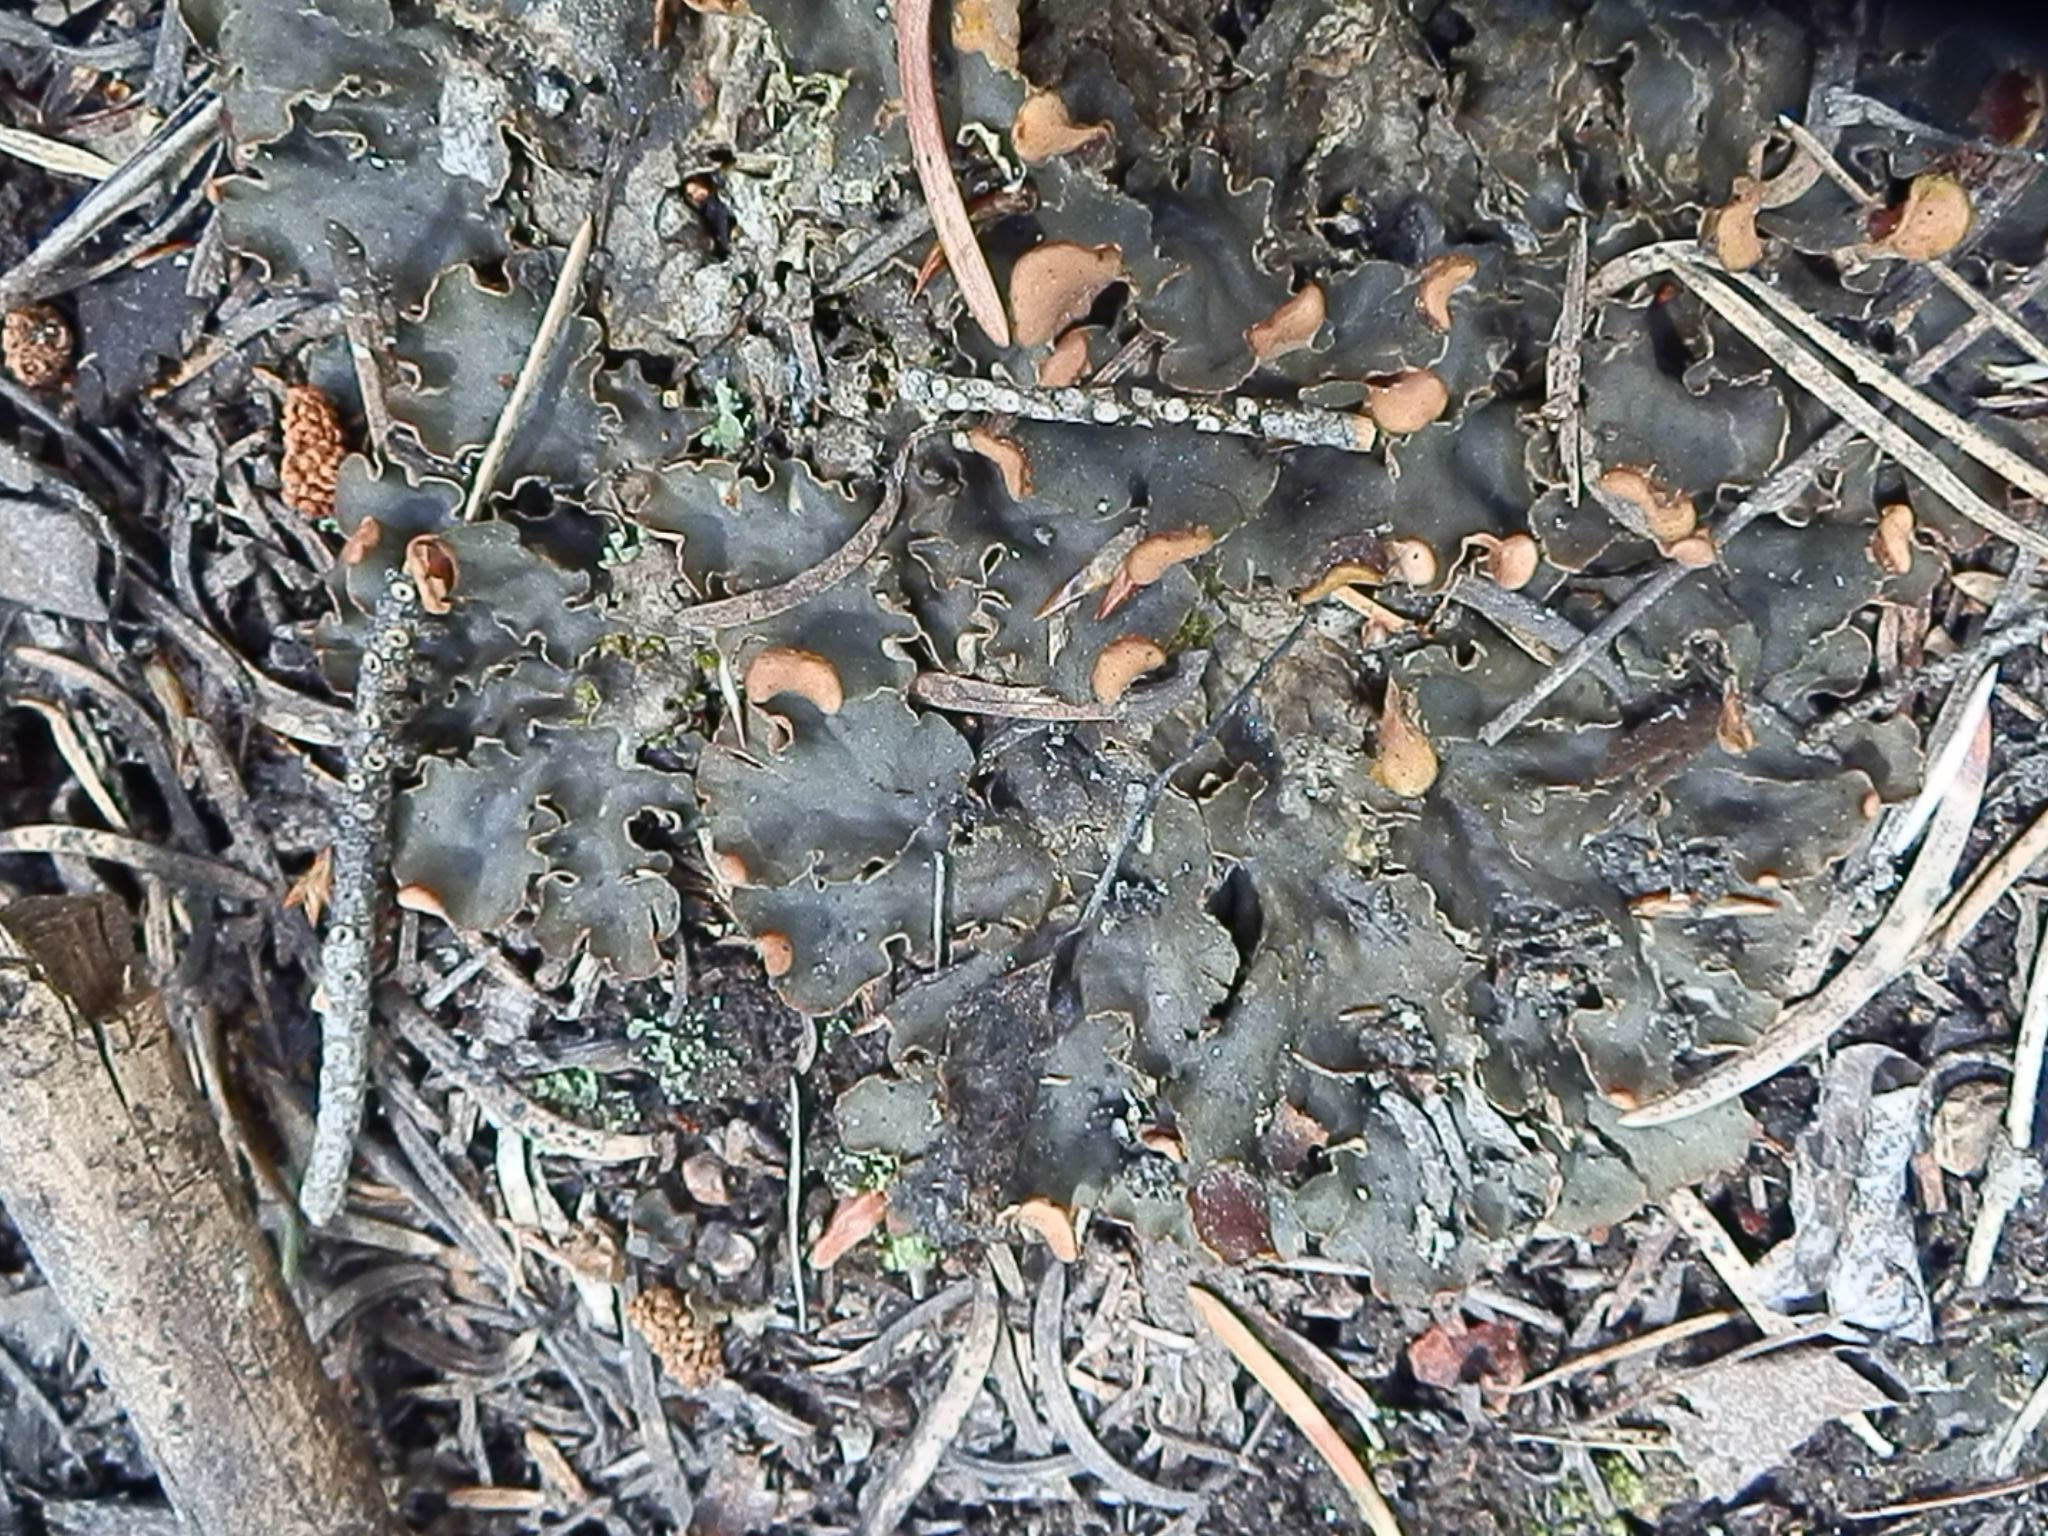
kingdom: Fungi
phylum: Ascomycota
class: Lecanoromycetes
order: Peltigerales
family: Peltigeraceae
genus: Peltigera
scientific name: Peltigera rufescens
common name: Field dog lichen
